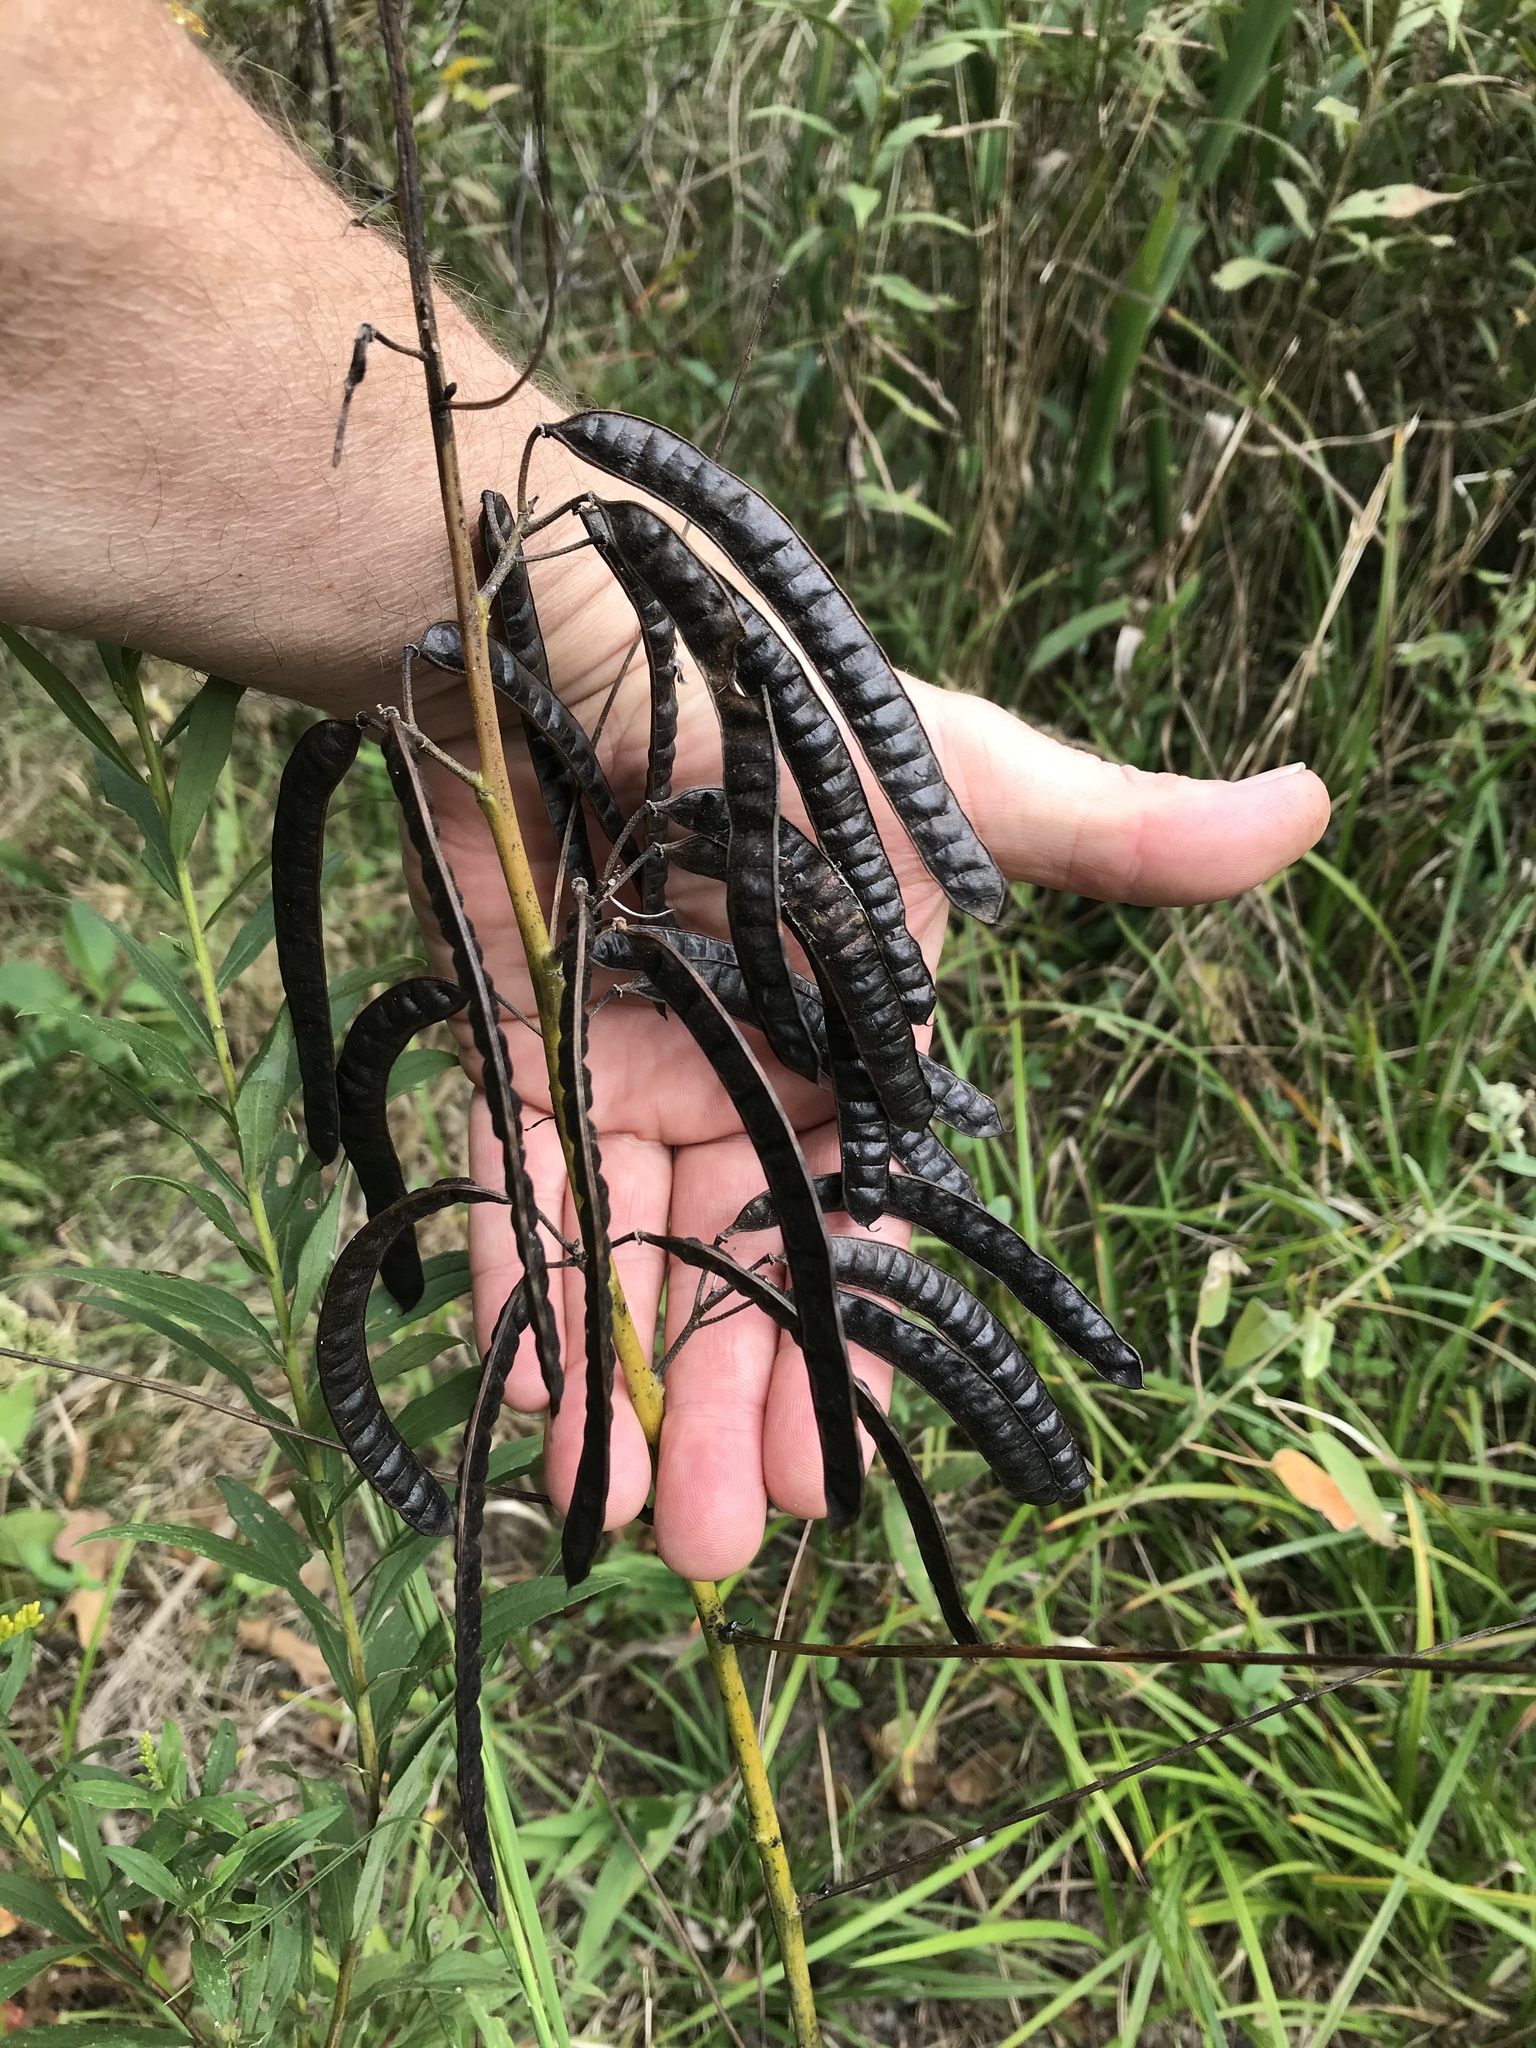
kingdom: Plantae
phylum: Tracheophyta
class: Magnoliopsida
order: Fabales
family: Fabaceae
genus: Senna
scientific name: Senna marilandica
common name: American senna
